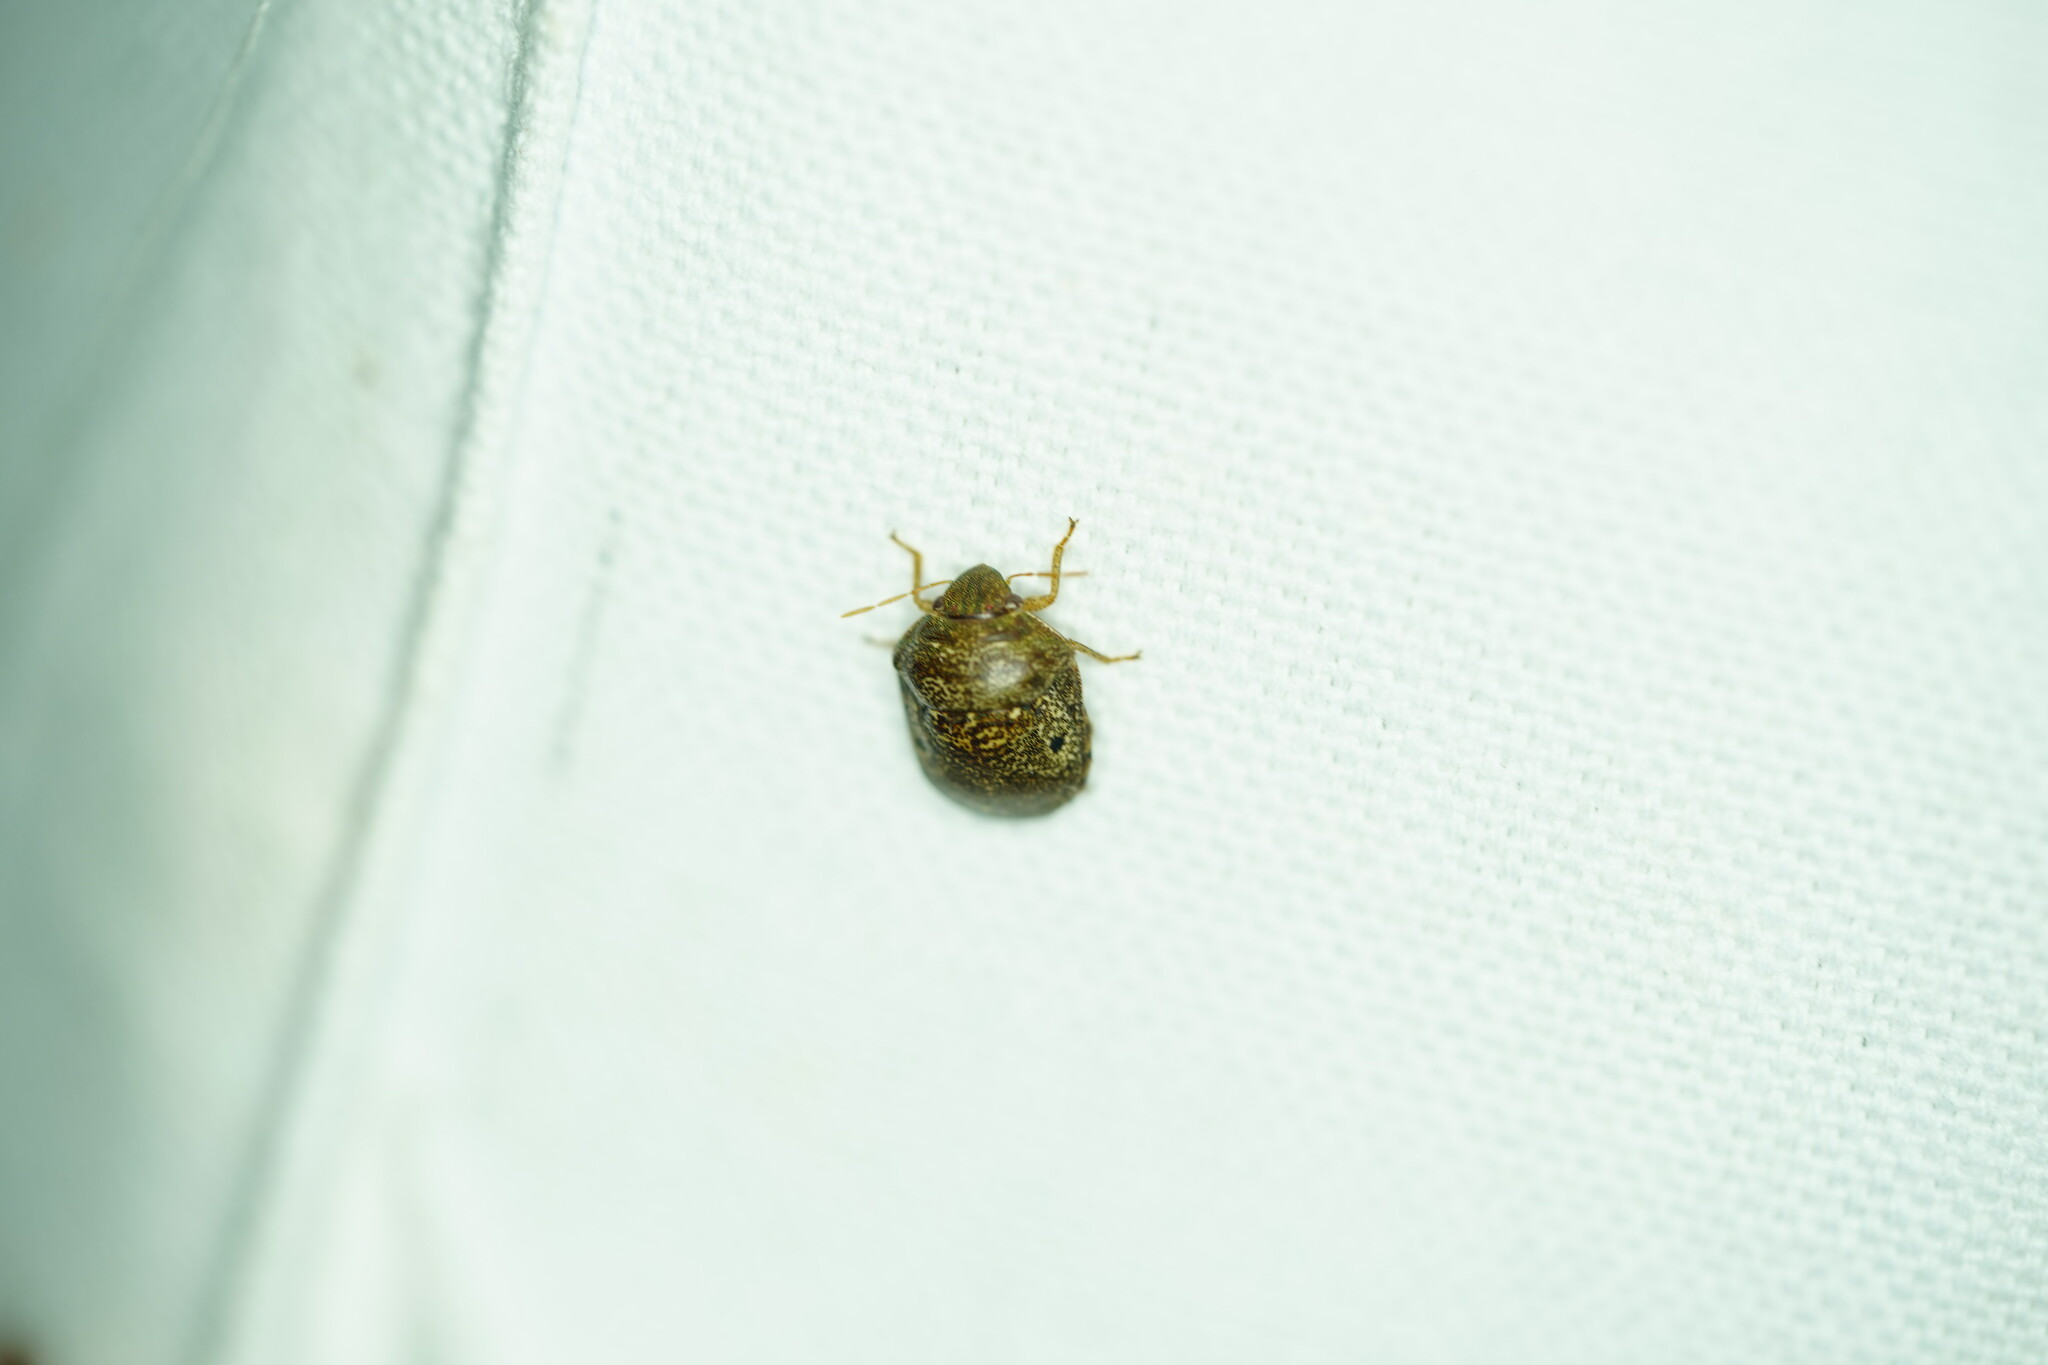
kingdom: Animalia
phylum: Arthropoda
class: Insecta
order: Hemiptera
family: Scutelleridae
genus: Diolcus
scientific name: Diolcus chrysorrhoeus
